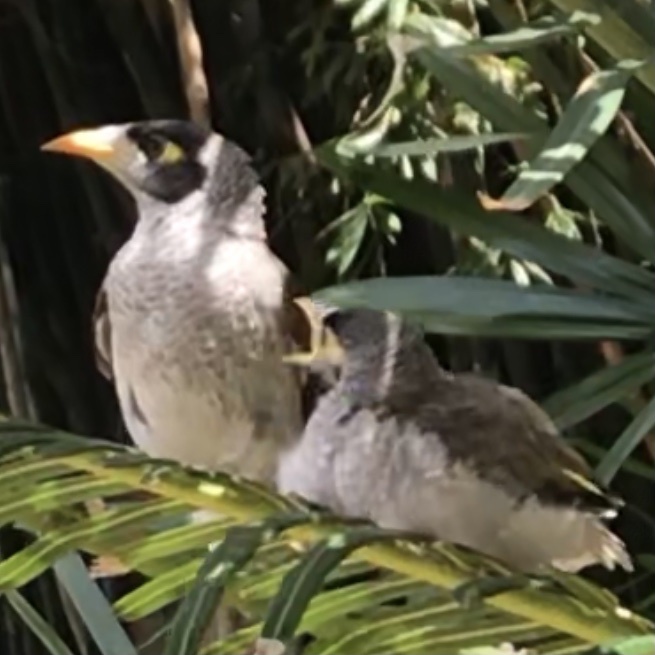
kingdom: Animalia
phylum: Chordata
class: Aves
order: Passeriformes
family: Meliphagidae
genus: Manorina
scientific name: Manorina melanocephala
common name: Noisy miner
